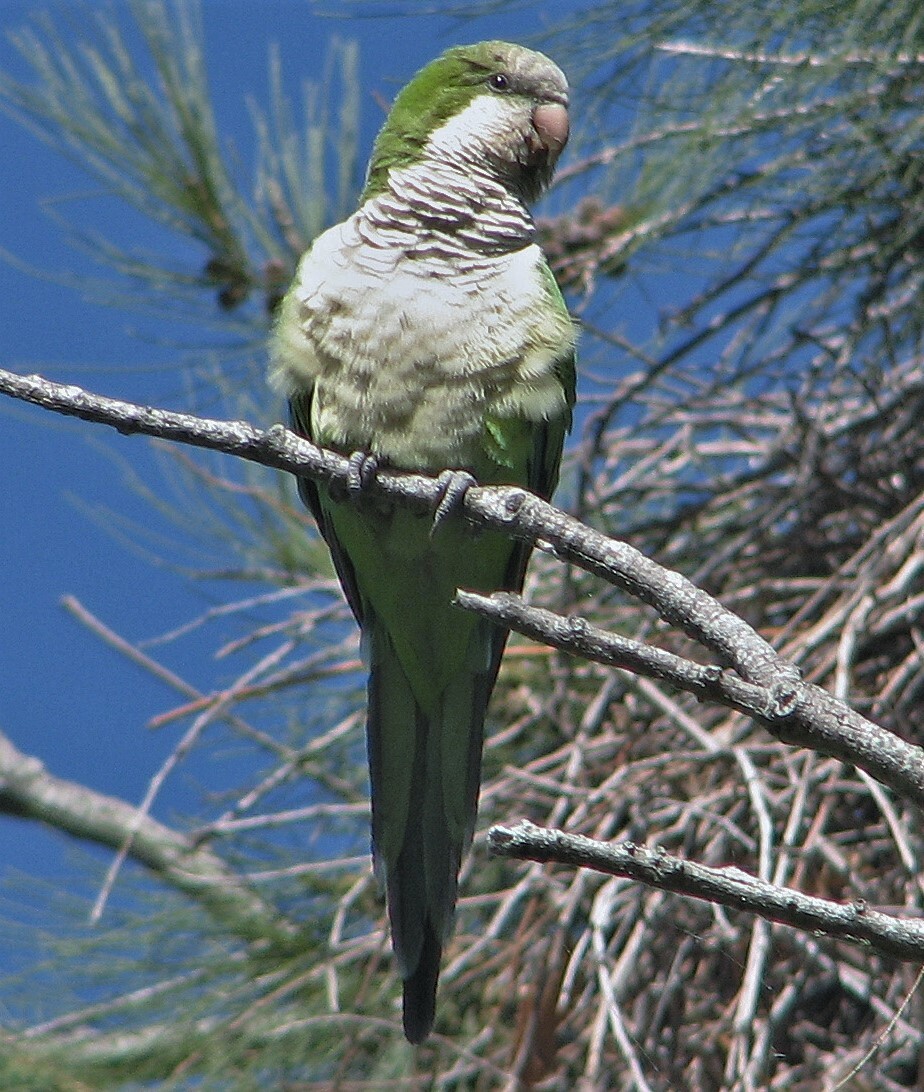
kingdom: Animalia
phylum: Chordata
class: Aves
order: Psittaciformes
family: Psittacidae
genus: Myiopsitta
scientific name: Myiopsitta monachus
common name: Monk parakeet
